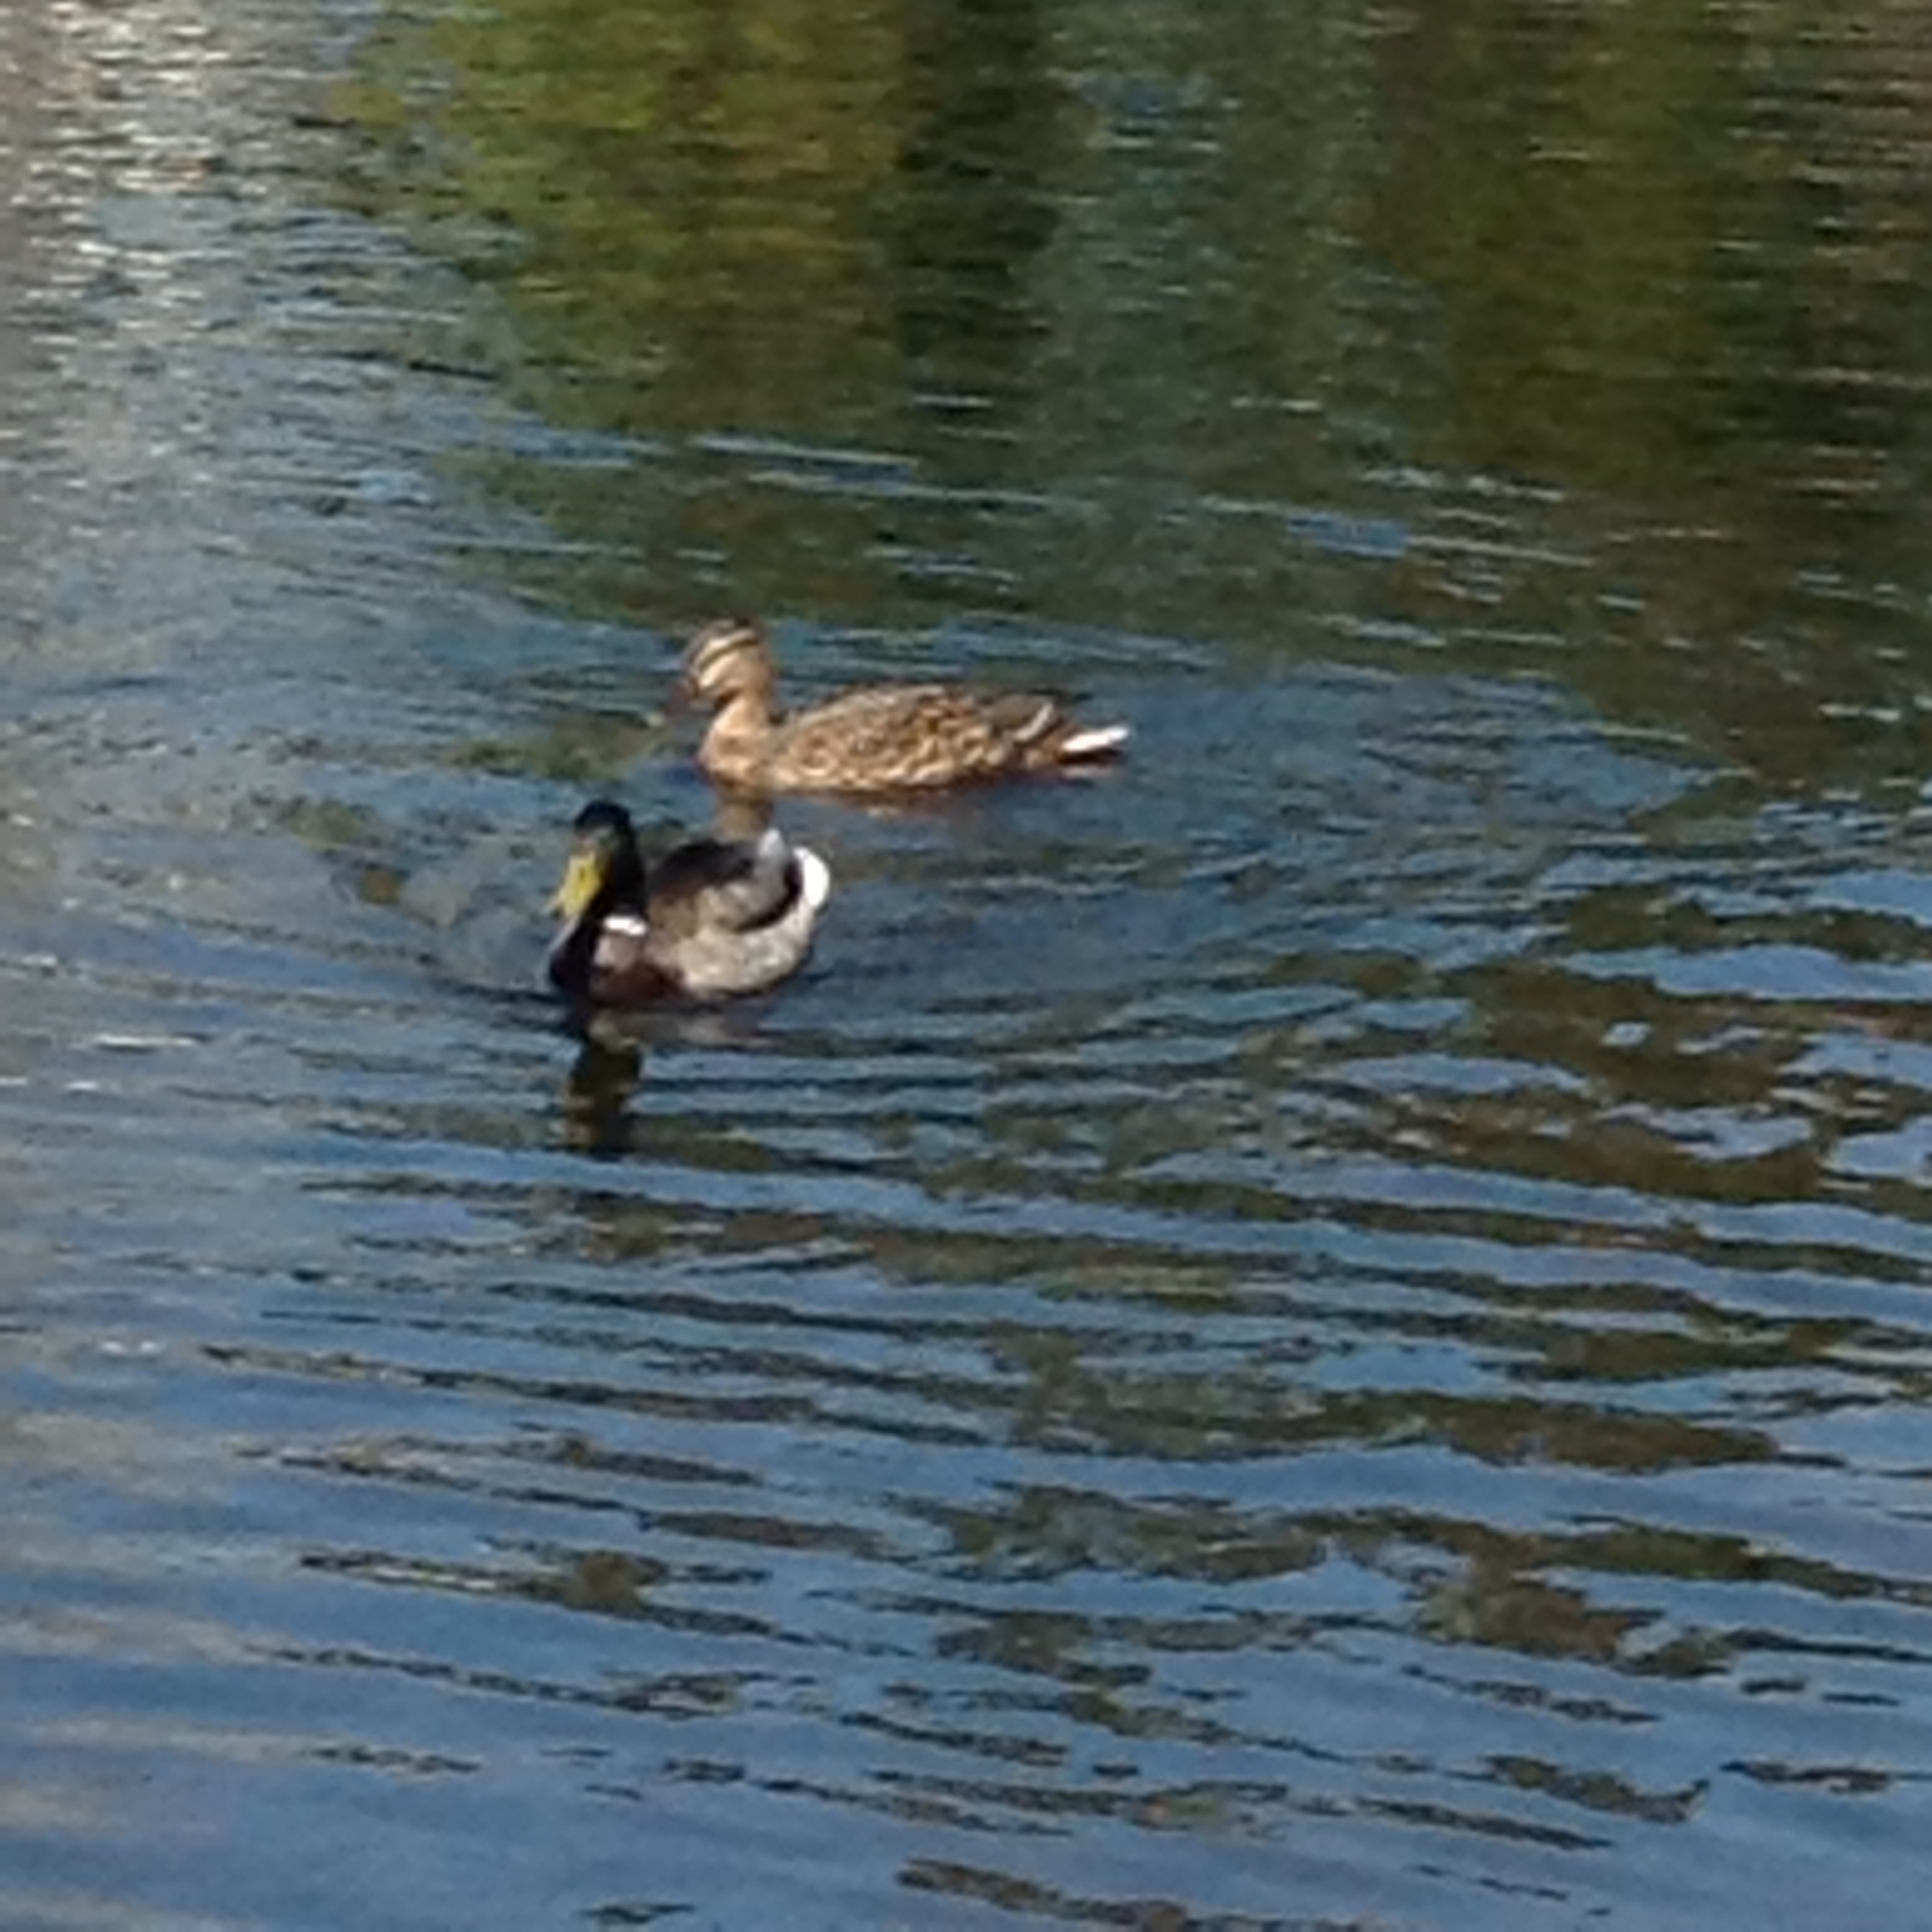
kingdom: Animalia
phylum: Chordata
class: Aves
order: Anseriformes
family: Anatidae
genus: Anas
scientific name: Anas platyrhynchos
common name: Mallard
